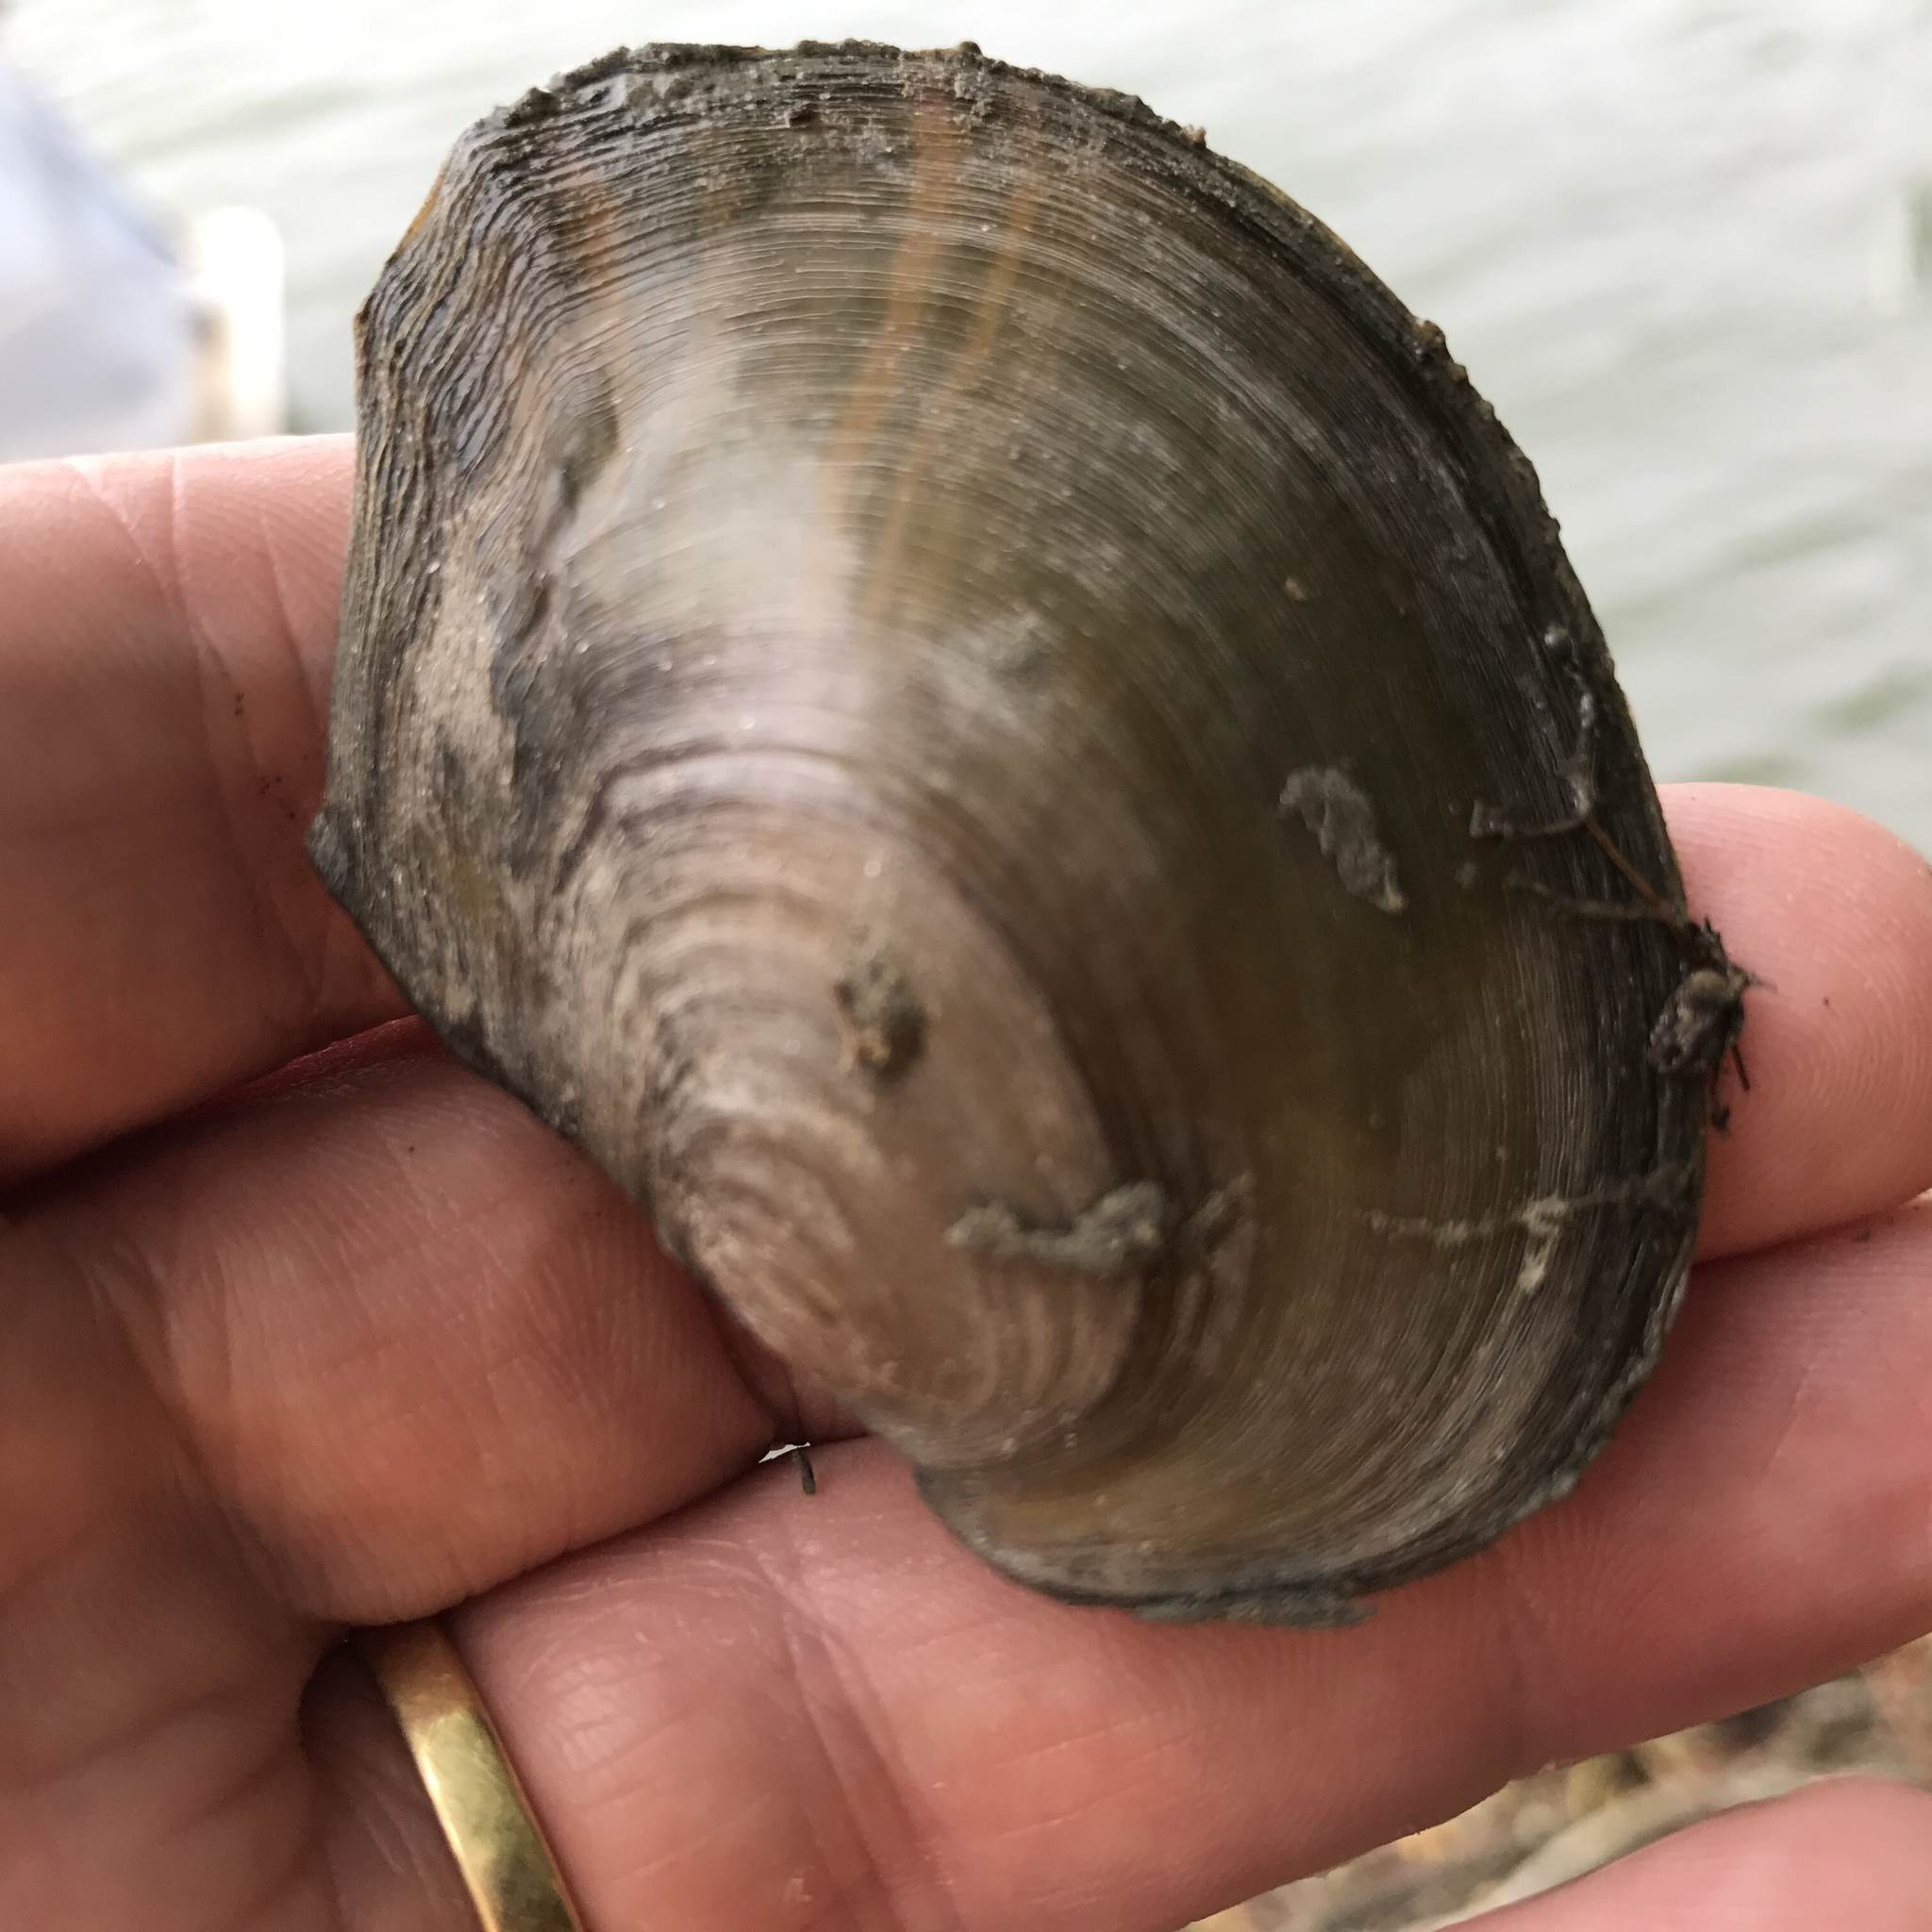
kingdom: Animalia
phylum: Mollusca
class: Bivalvia
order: Unionida
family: Unionidae
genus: Sinanodonta
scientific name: Sinanodonta woodiana
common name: Chinese pond mussel
